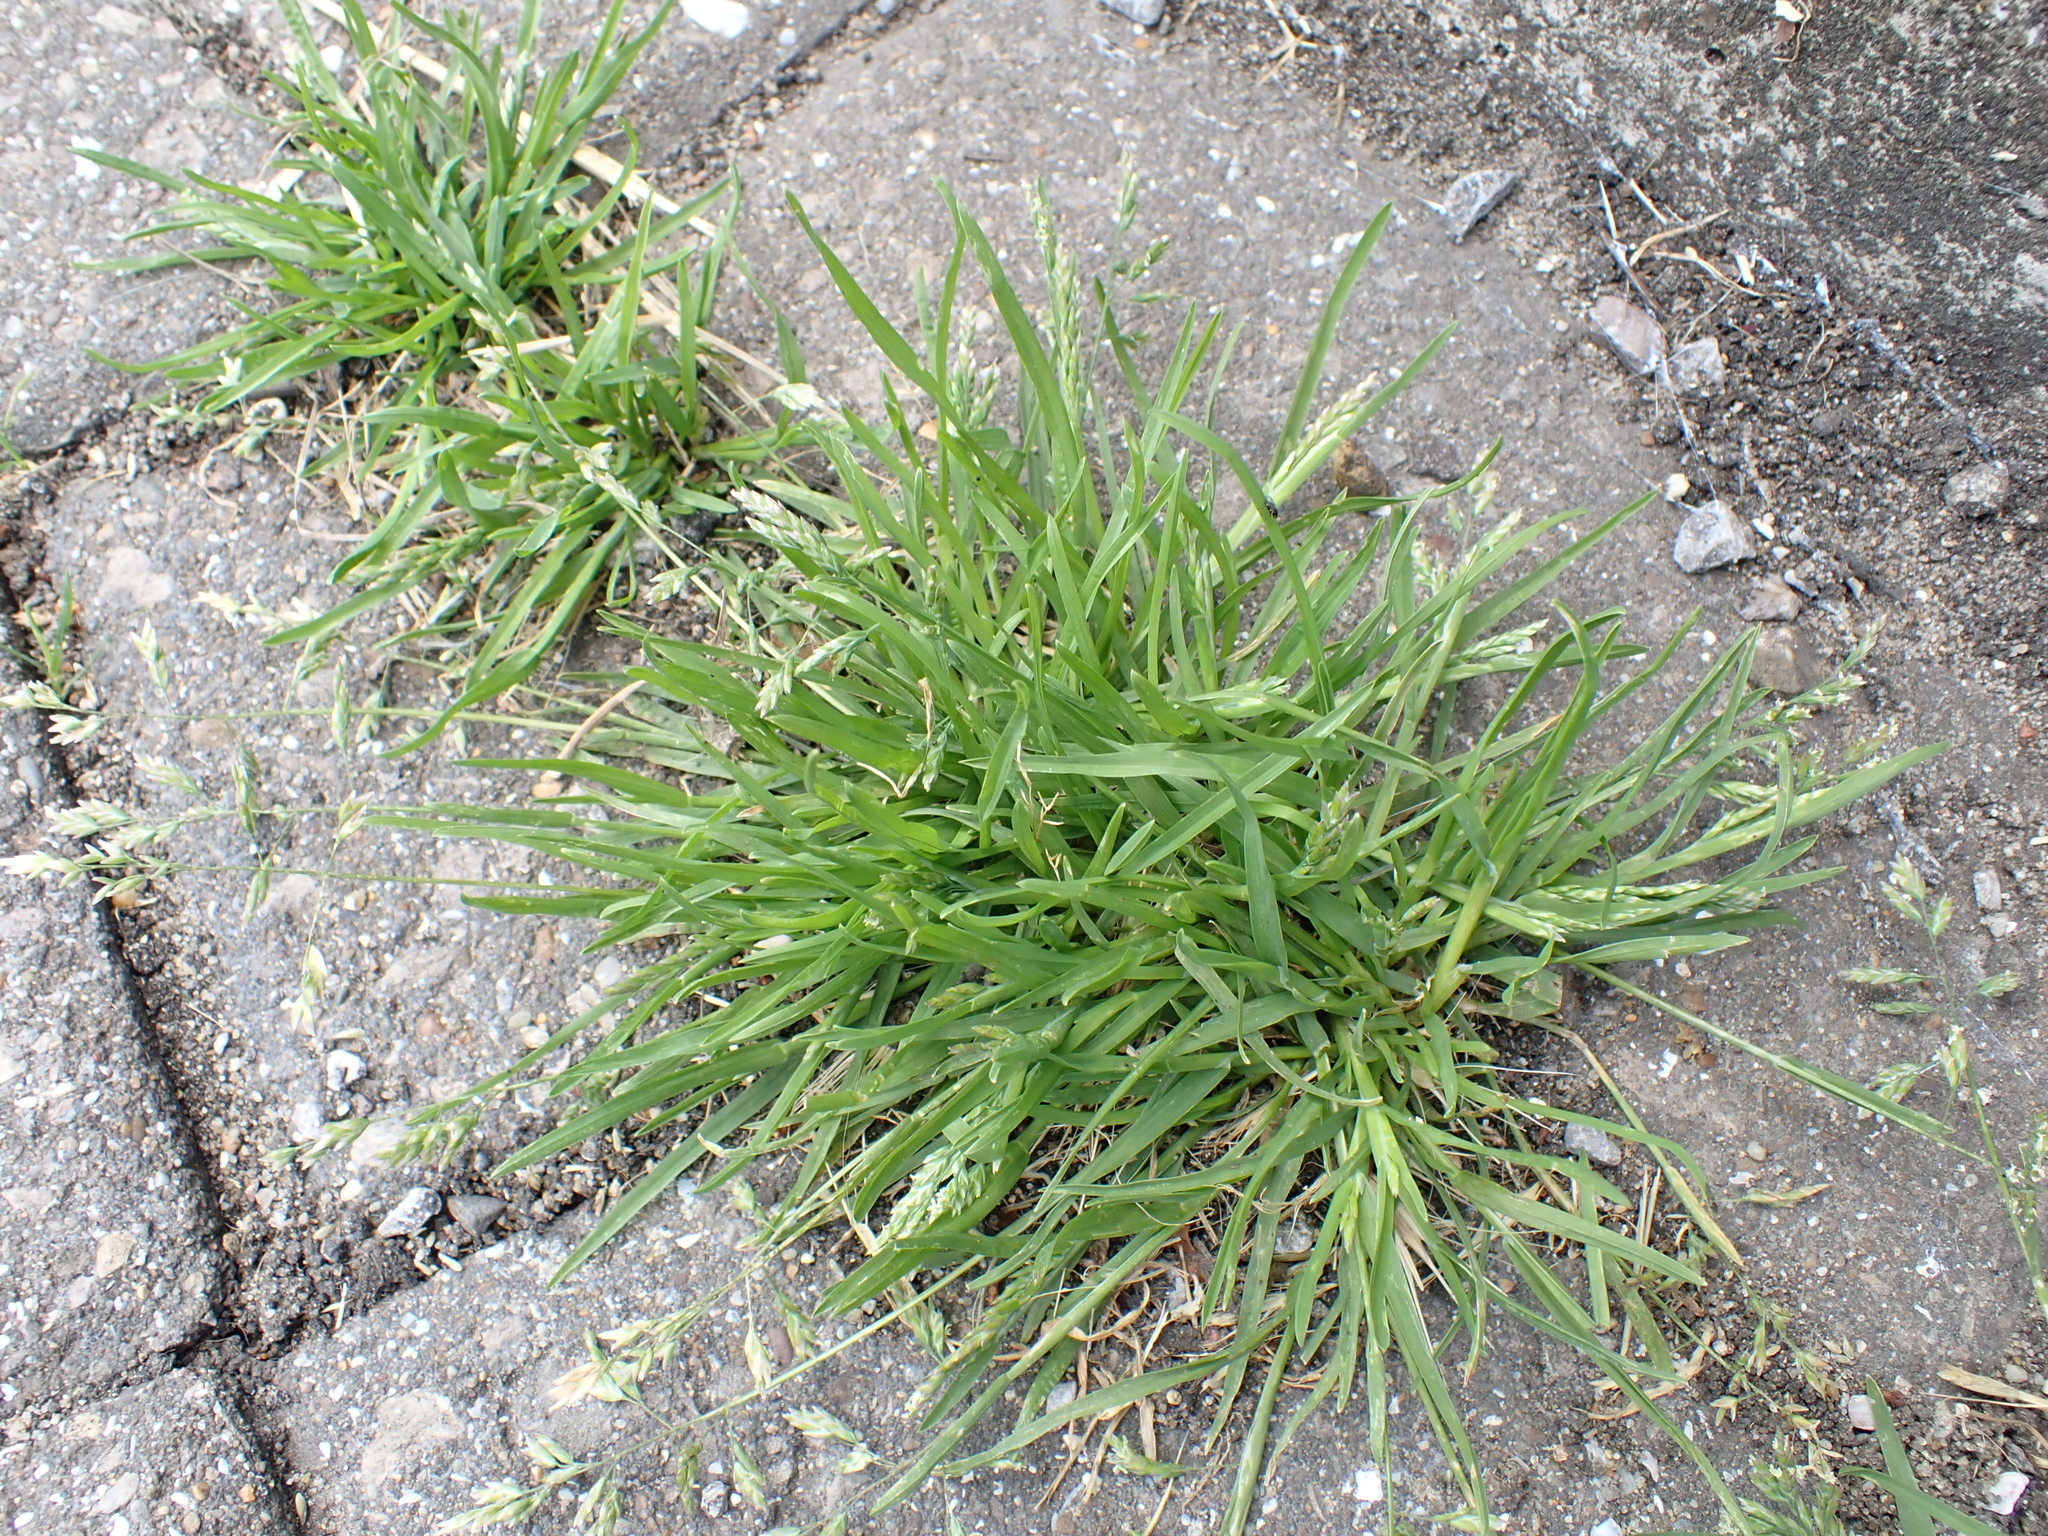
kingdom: Plantae
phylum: Tracheophyta
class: Liliopsida
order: Poales
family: Poaceae
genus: Poa
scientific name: Poa annua
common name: Annual bluegrass
